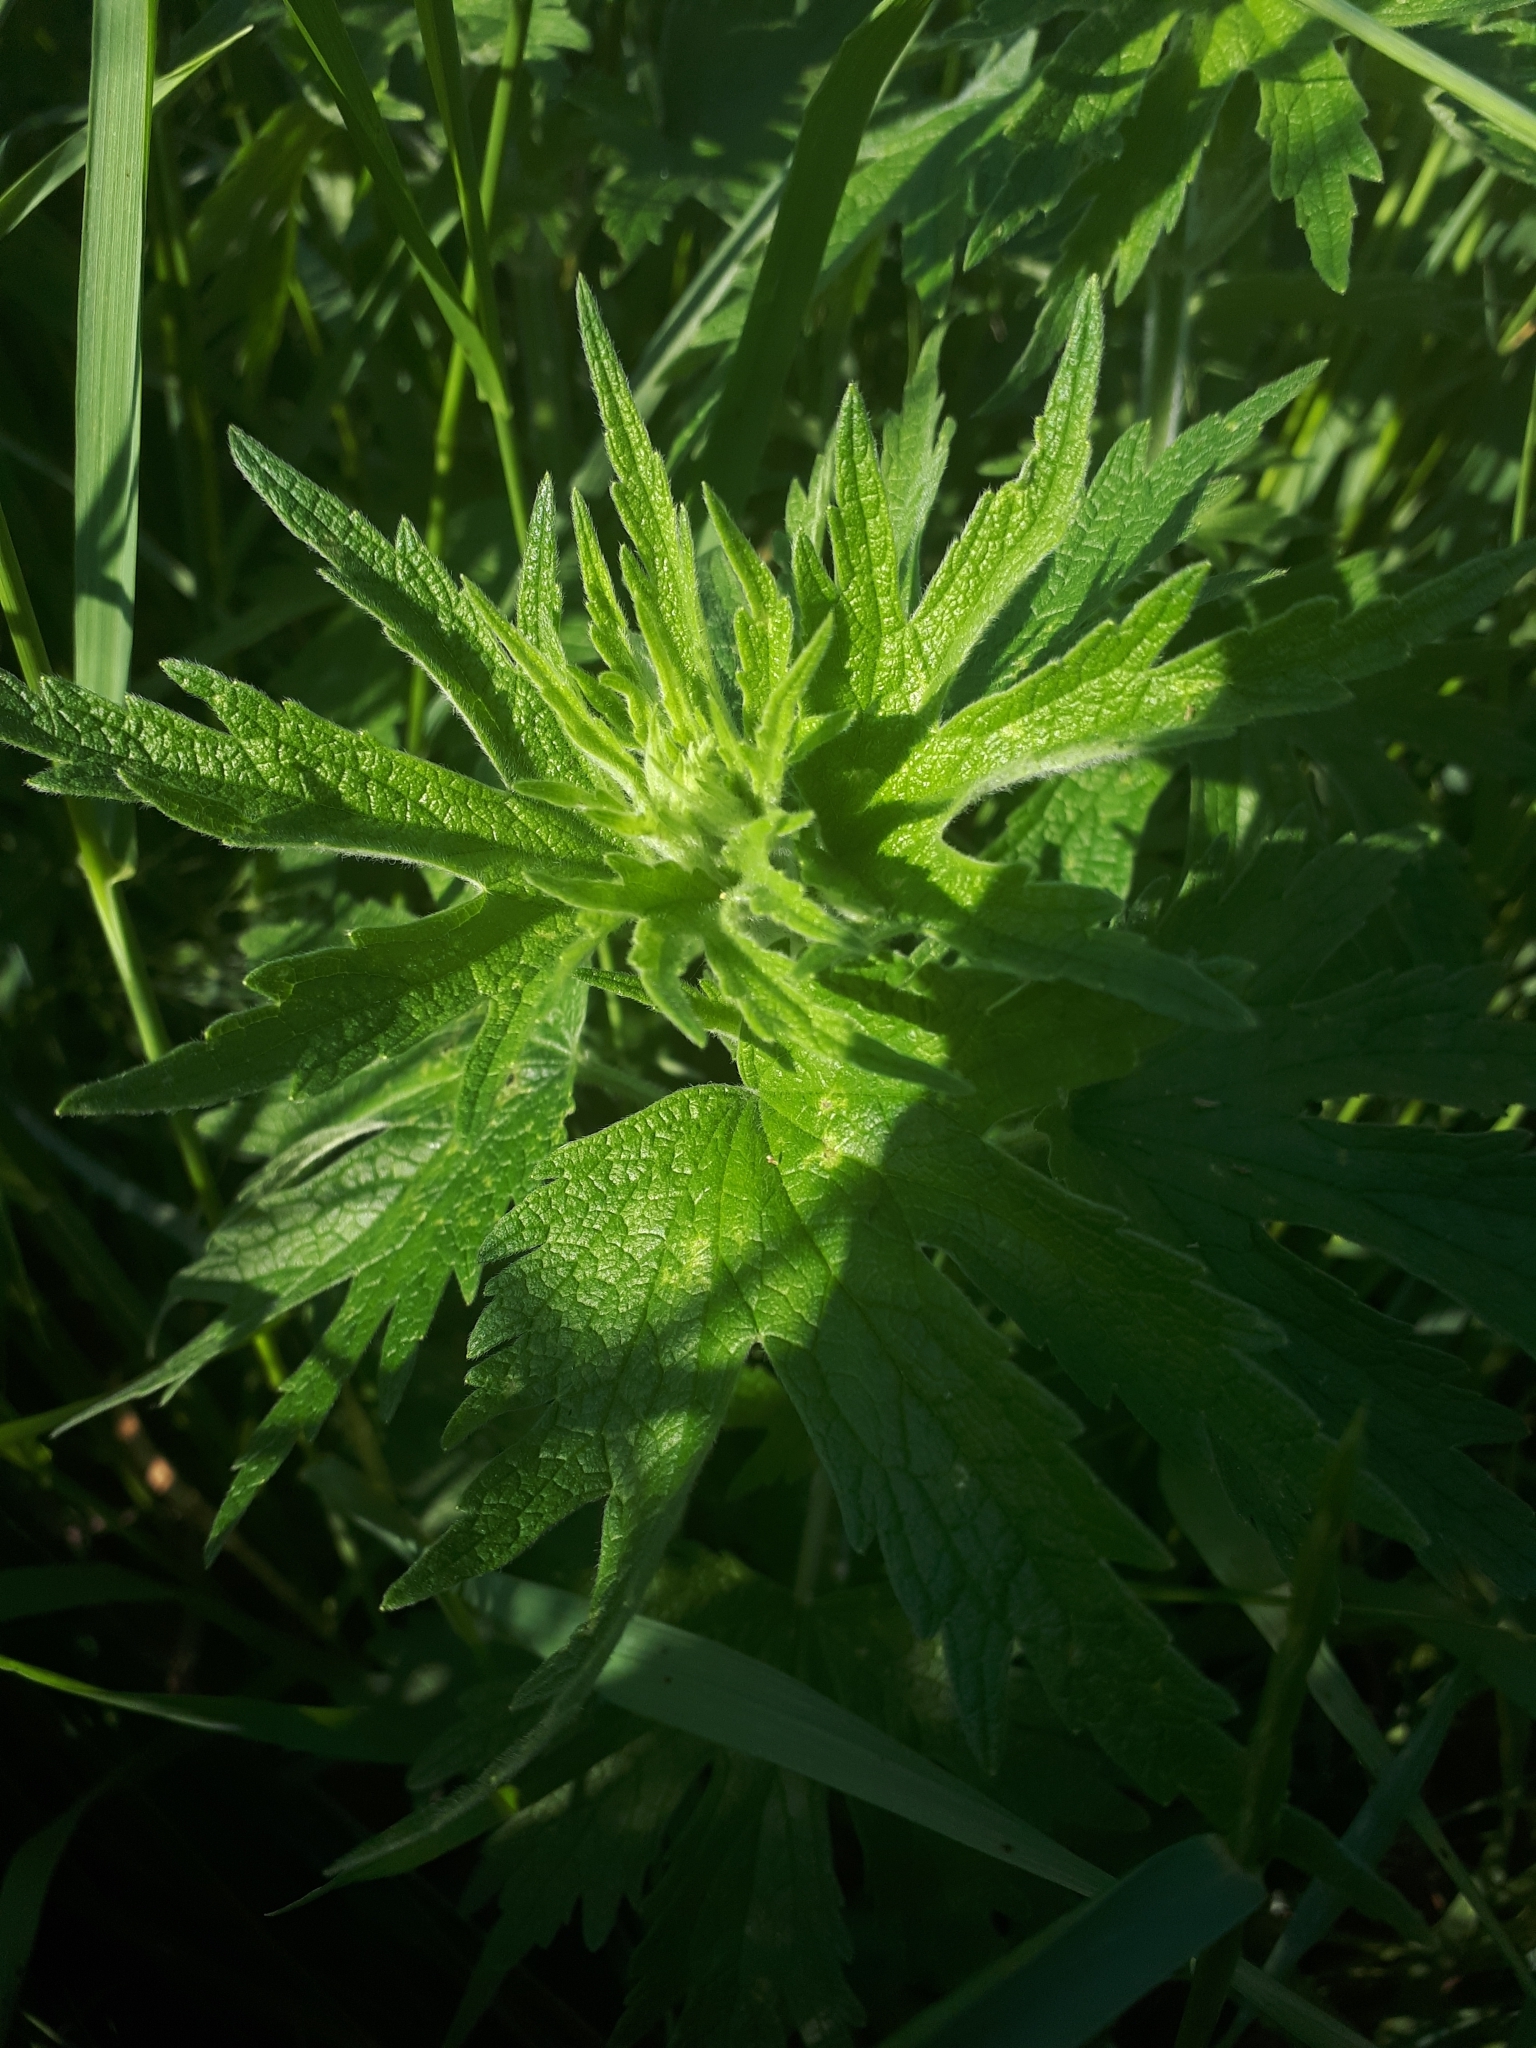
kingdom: Plantae
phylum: Tracheophyta
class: Magnoliopsida
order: Lamiales
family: Lamiaceae
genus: Leonurus
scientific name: Leonurus quinquelobatus
